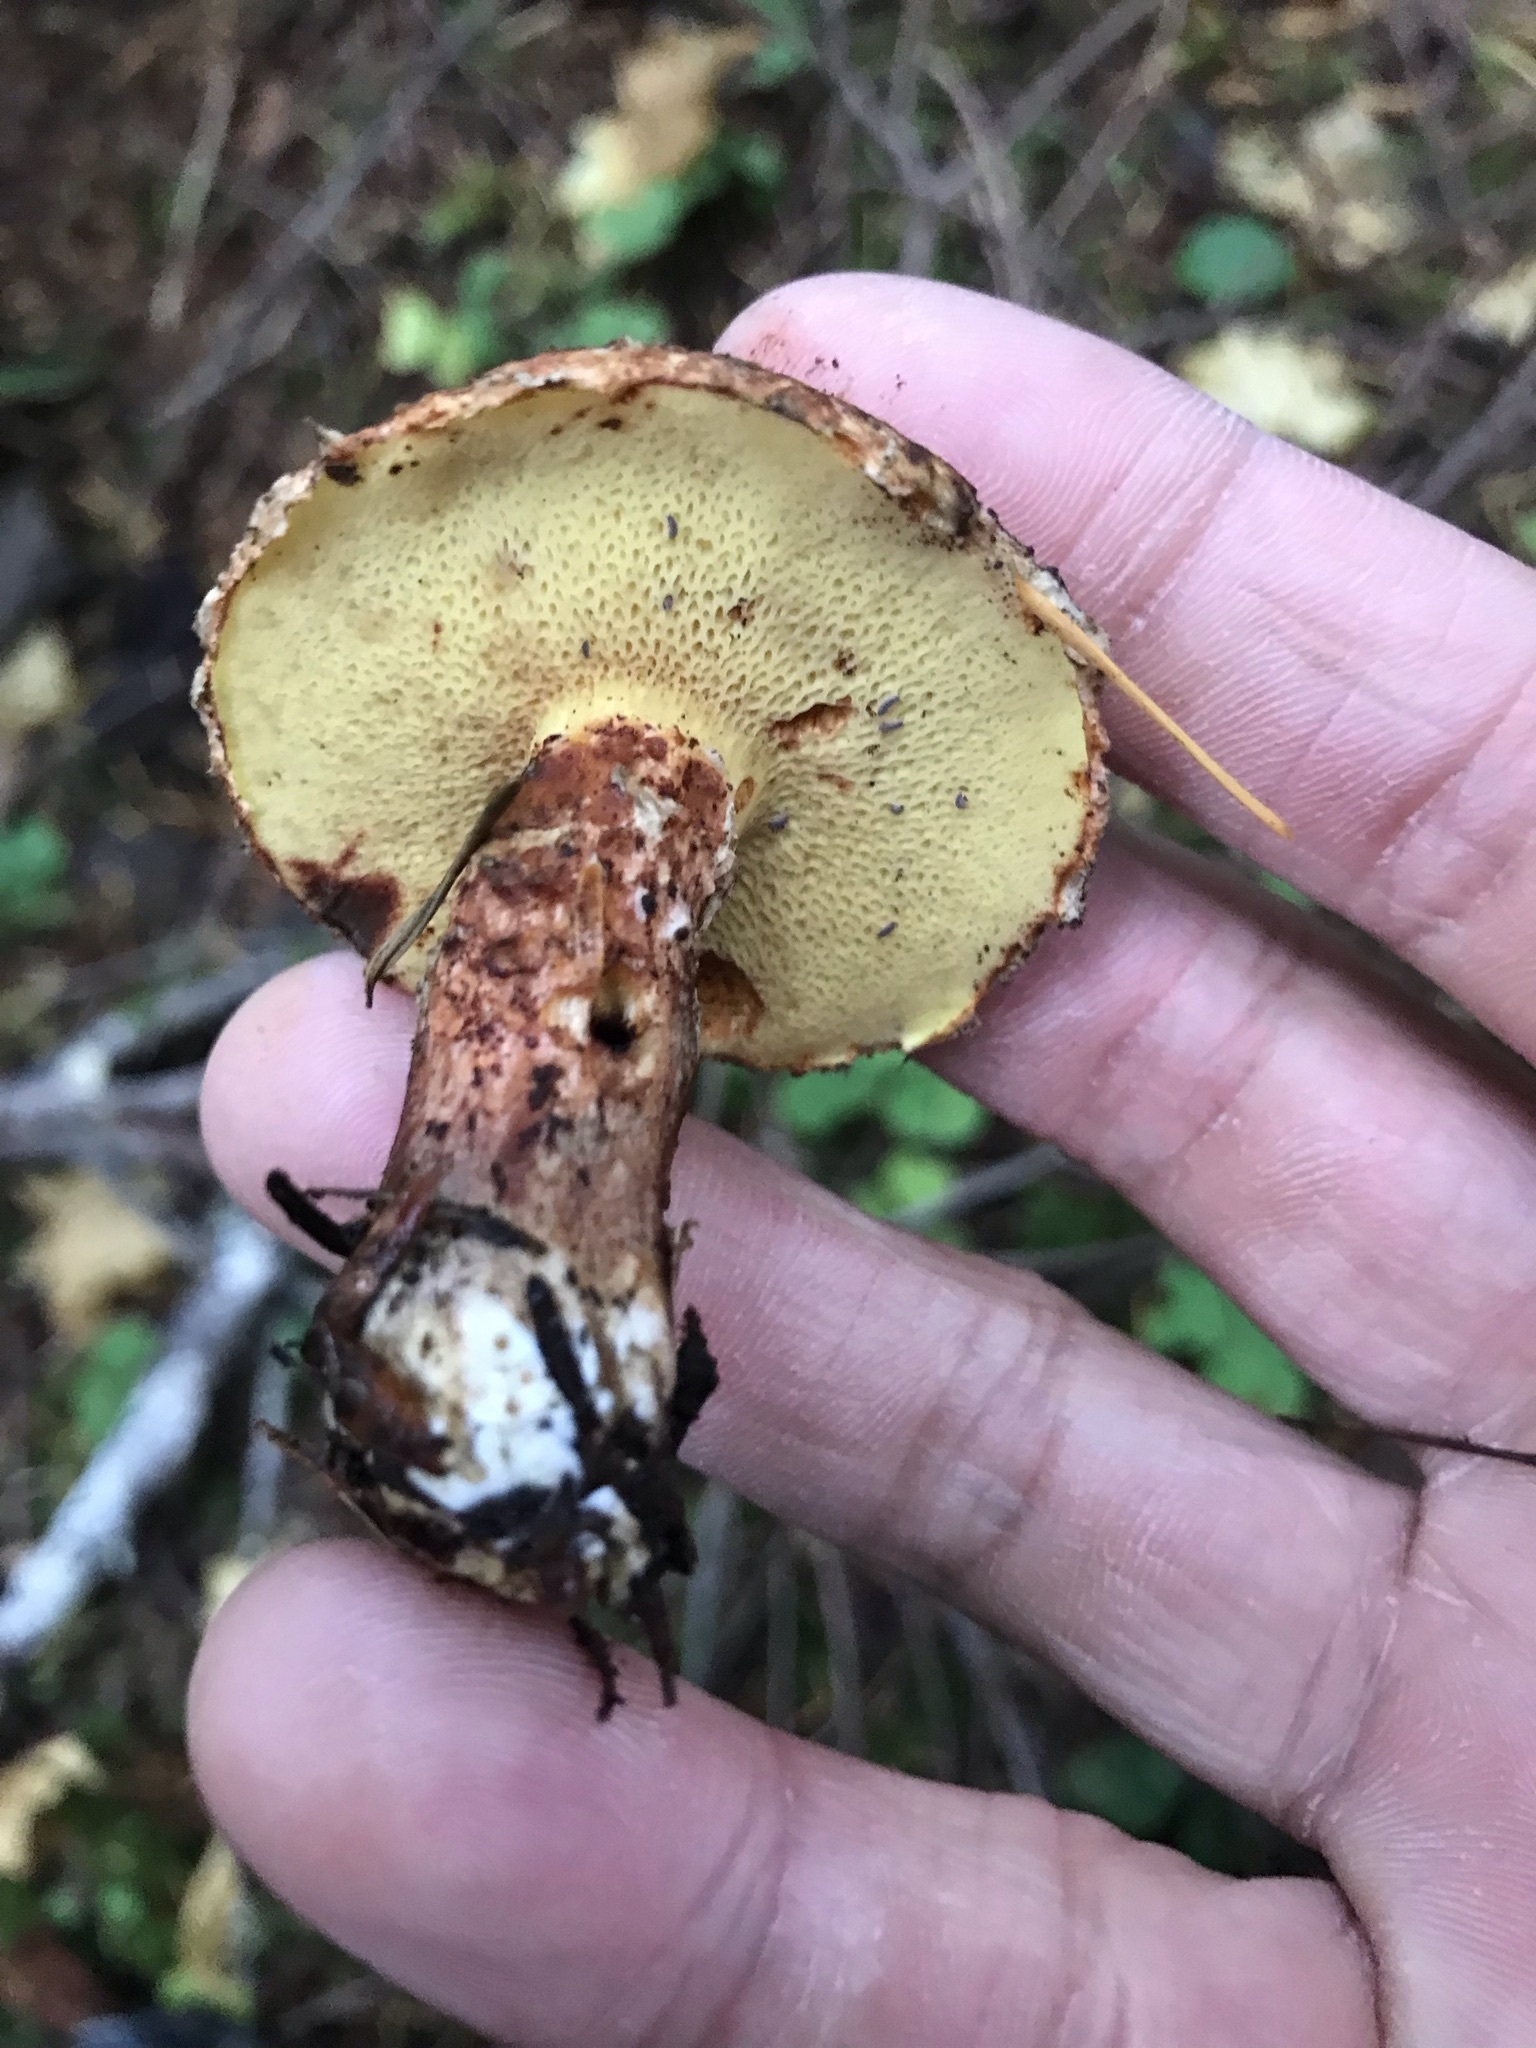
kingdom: Fungi
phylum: Basidiomycota
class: Agaricomycetes
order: Boletales
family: Suillaceae
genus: Suillus
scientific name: Suillus lakei
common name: Western painted suillus
